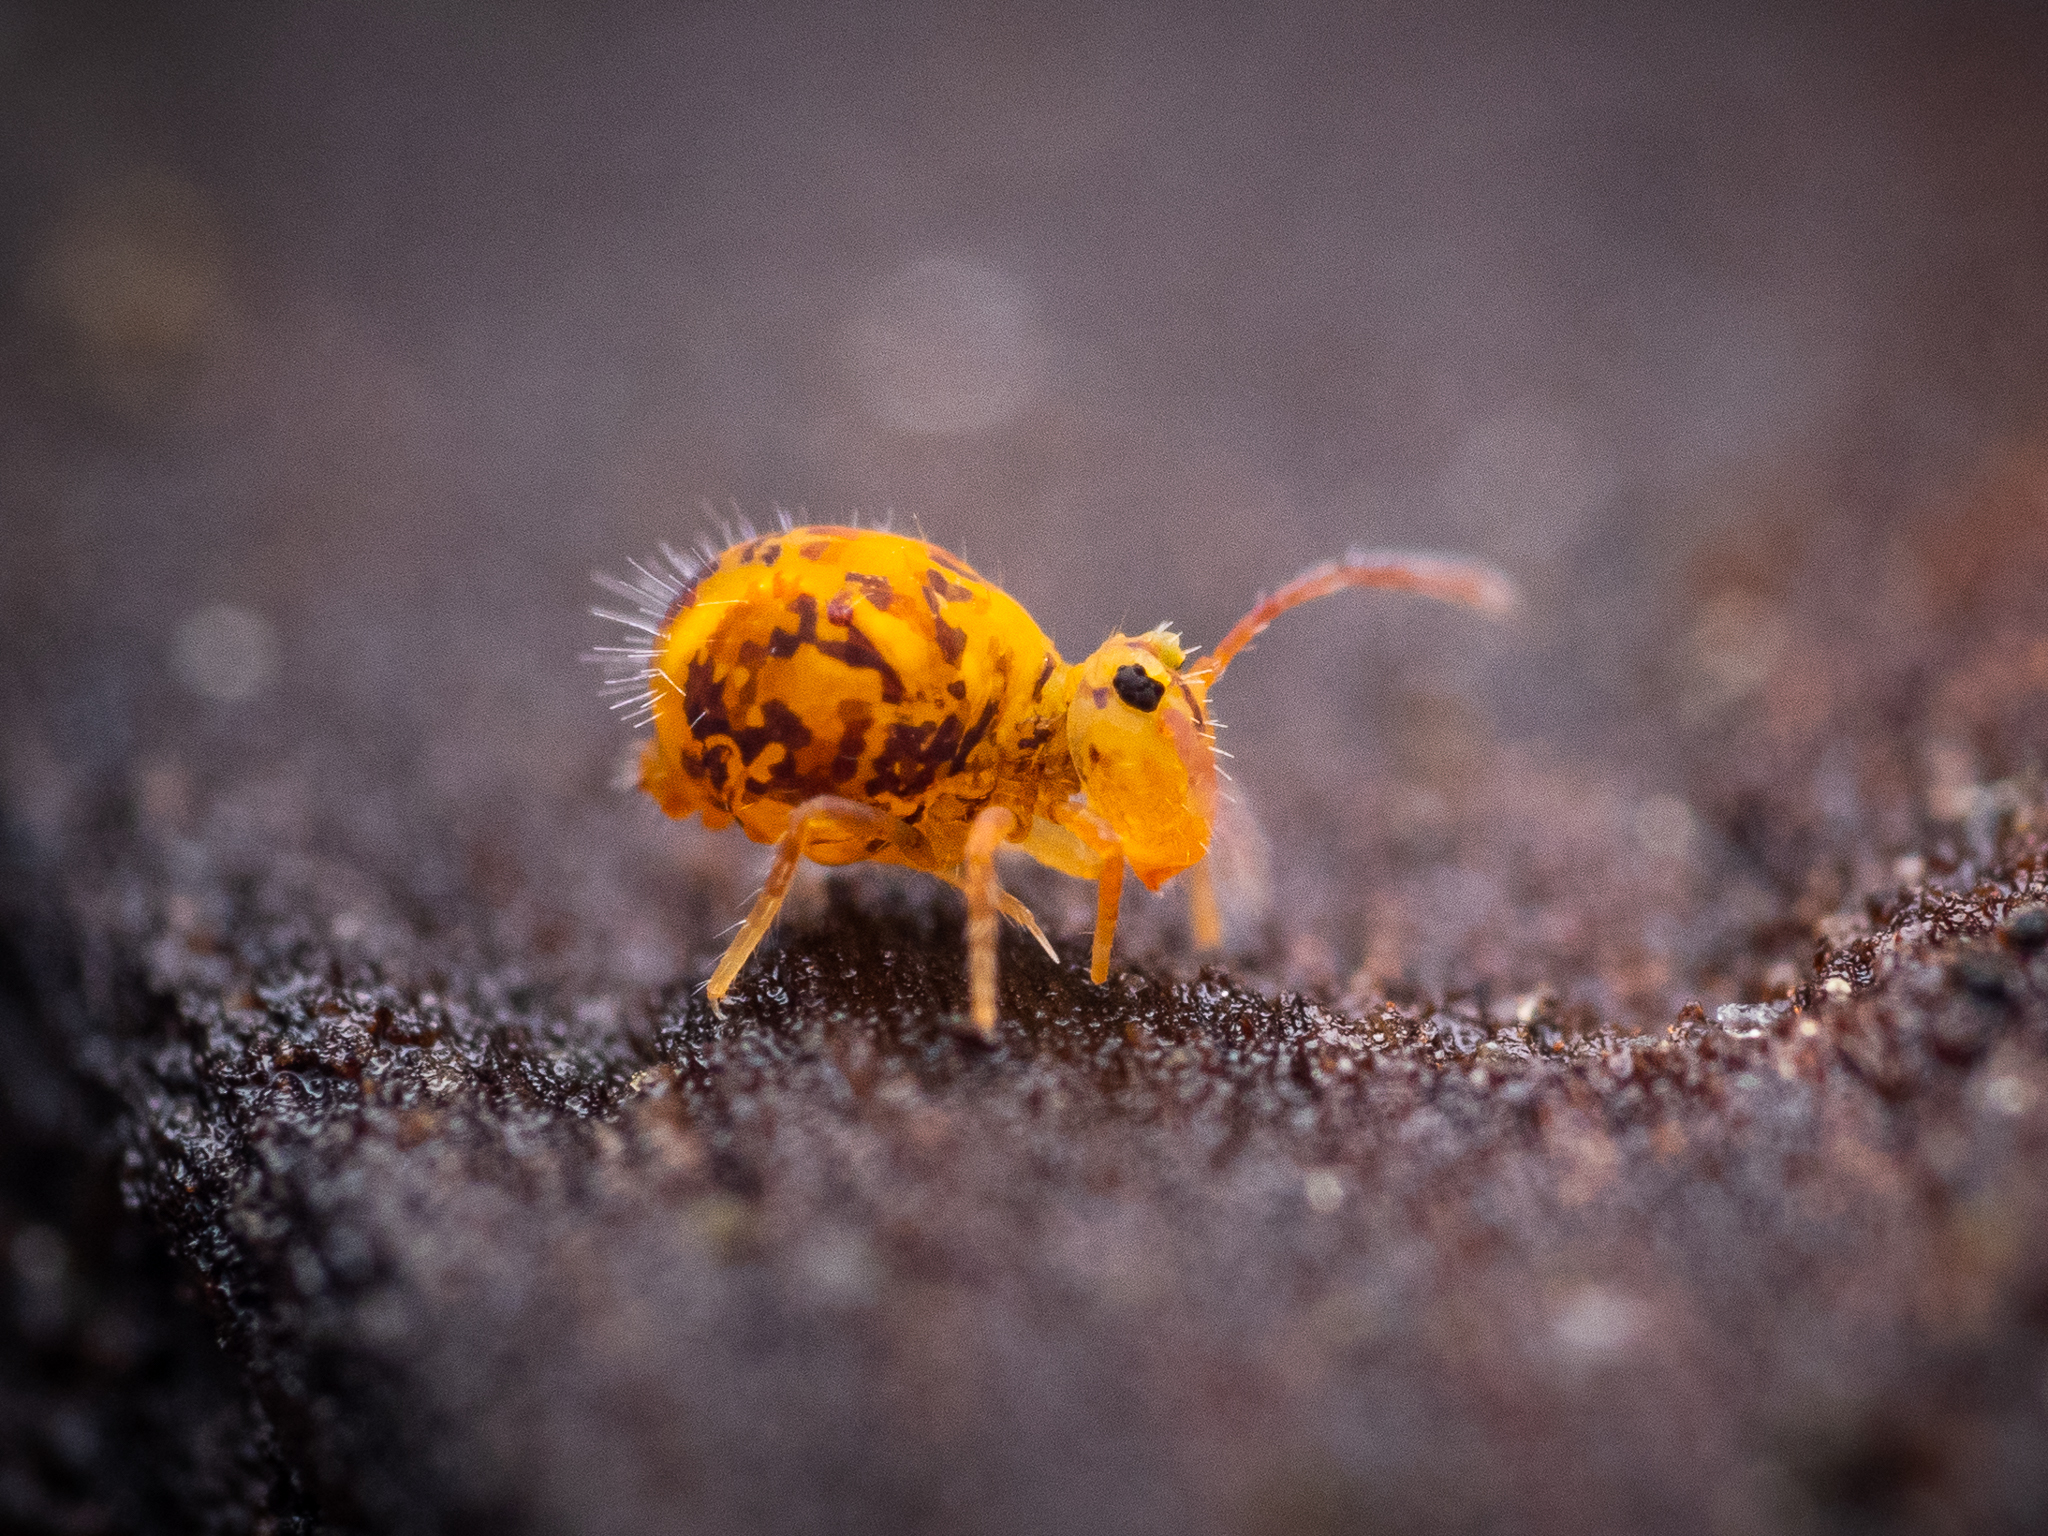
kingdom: Animalia
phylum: Arthropoda
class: Collembola
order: Symphypleona
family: Dicyrtomidae
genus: Dicyrtomina
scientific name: Dicyrtomina ornata
